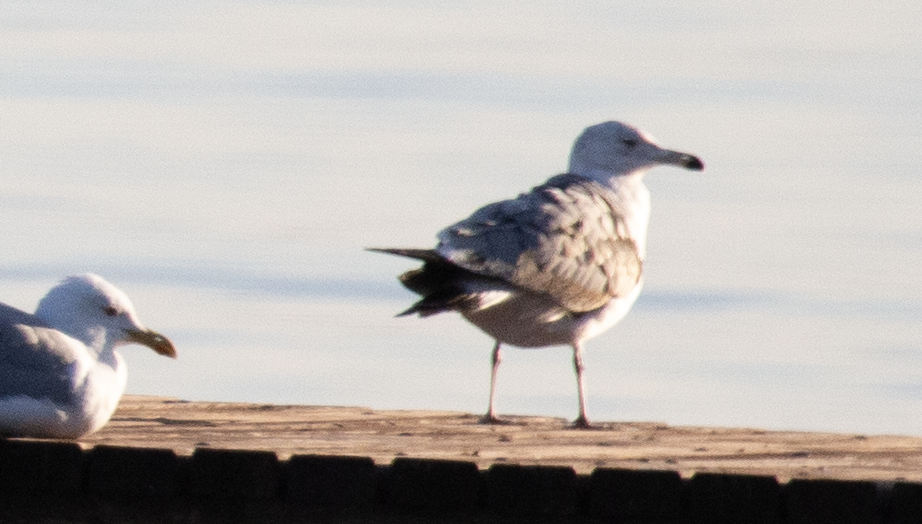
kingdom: Animalia
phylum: Chordata
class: Aves
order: Charadriiformes
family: Laridae
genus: Larus
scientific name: Larus cachinnans
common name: Caspian gull
